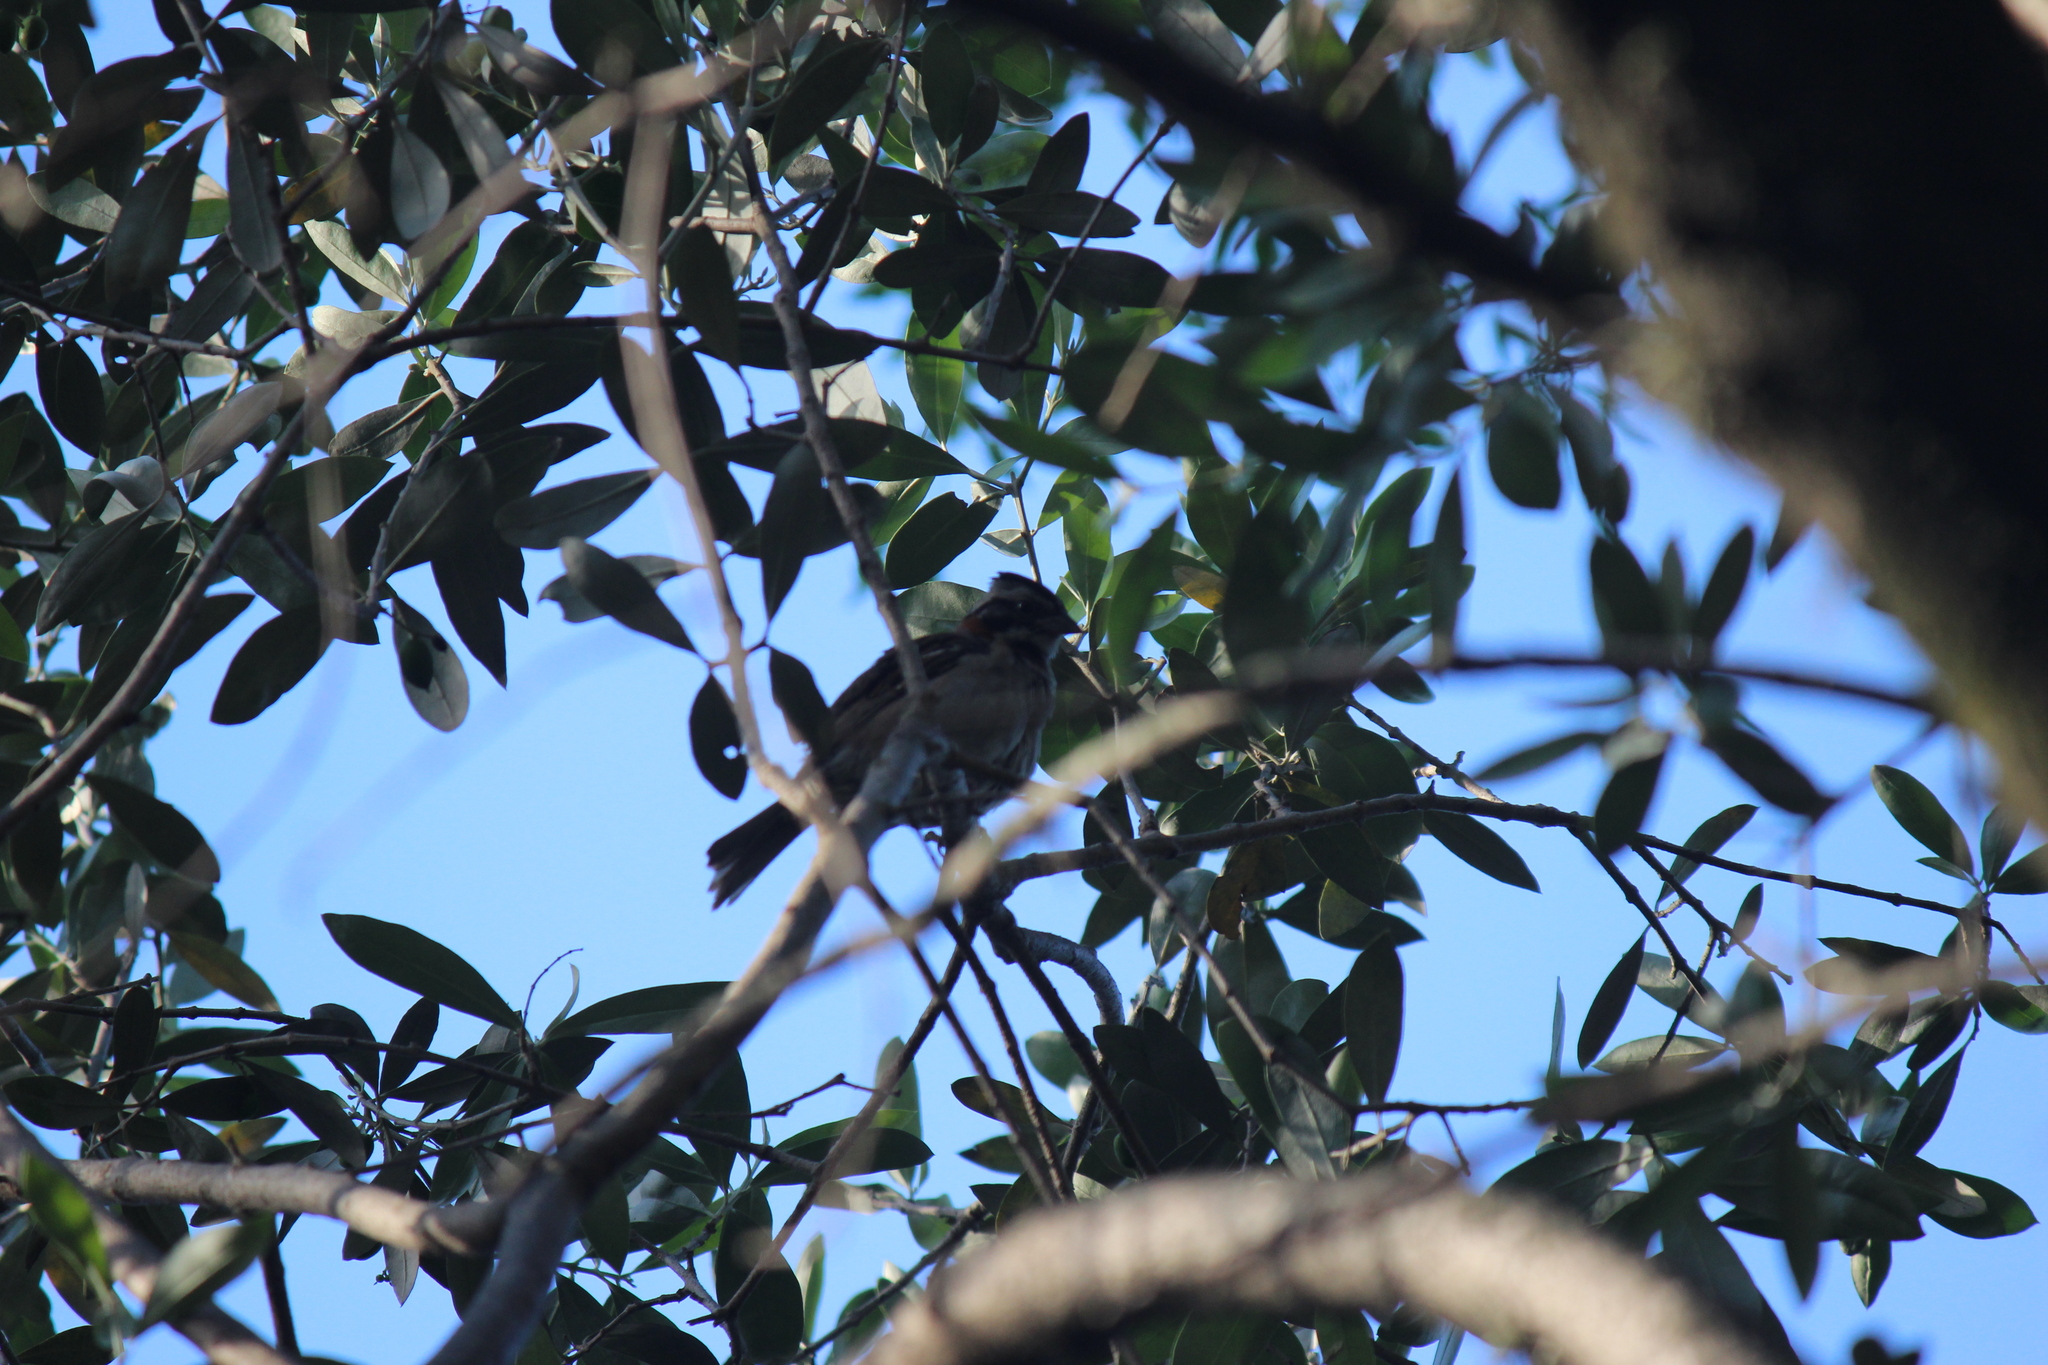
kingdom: Animalia
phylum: Chordata
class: Aves
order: Passeriformes
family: Passerellidae
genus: Zonotrichia
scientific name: Zonotrichia capensis
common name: Rufous-collared sparrow
